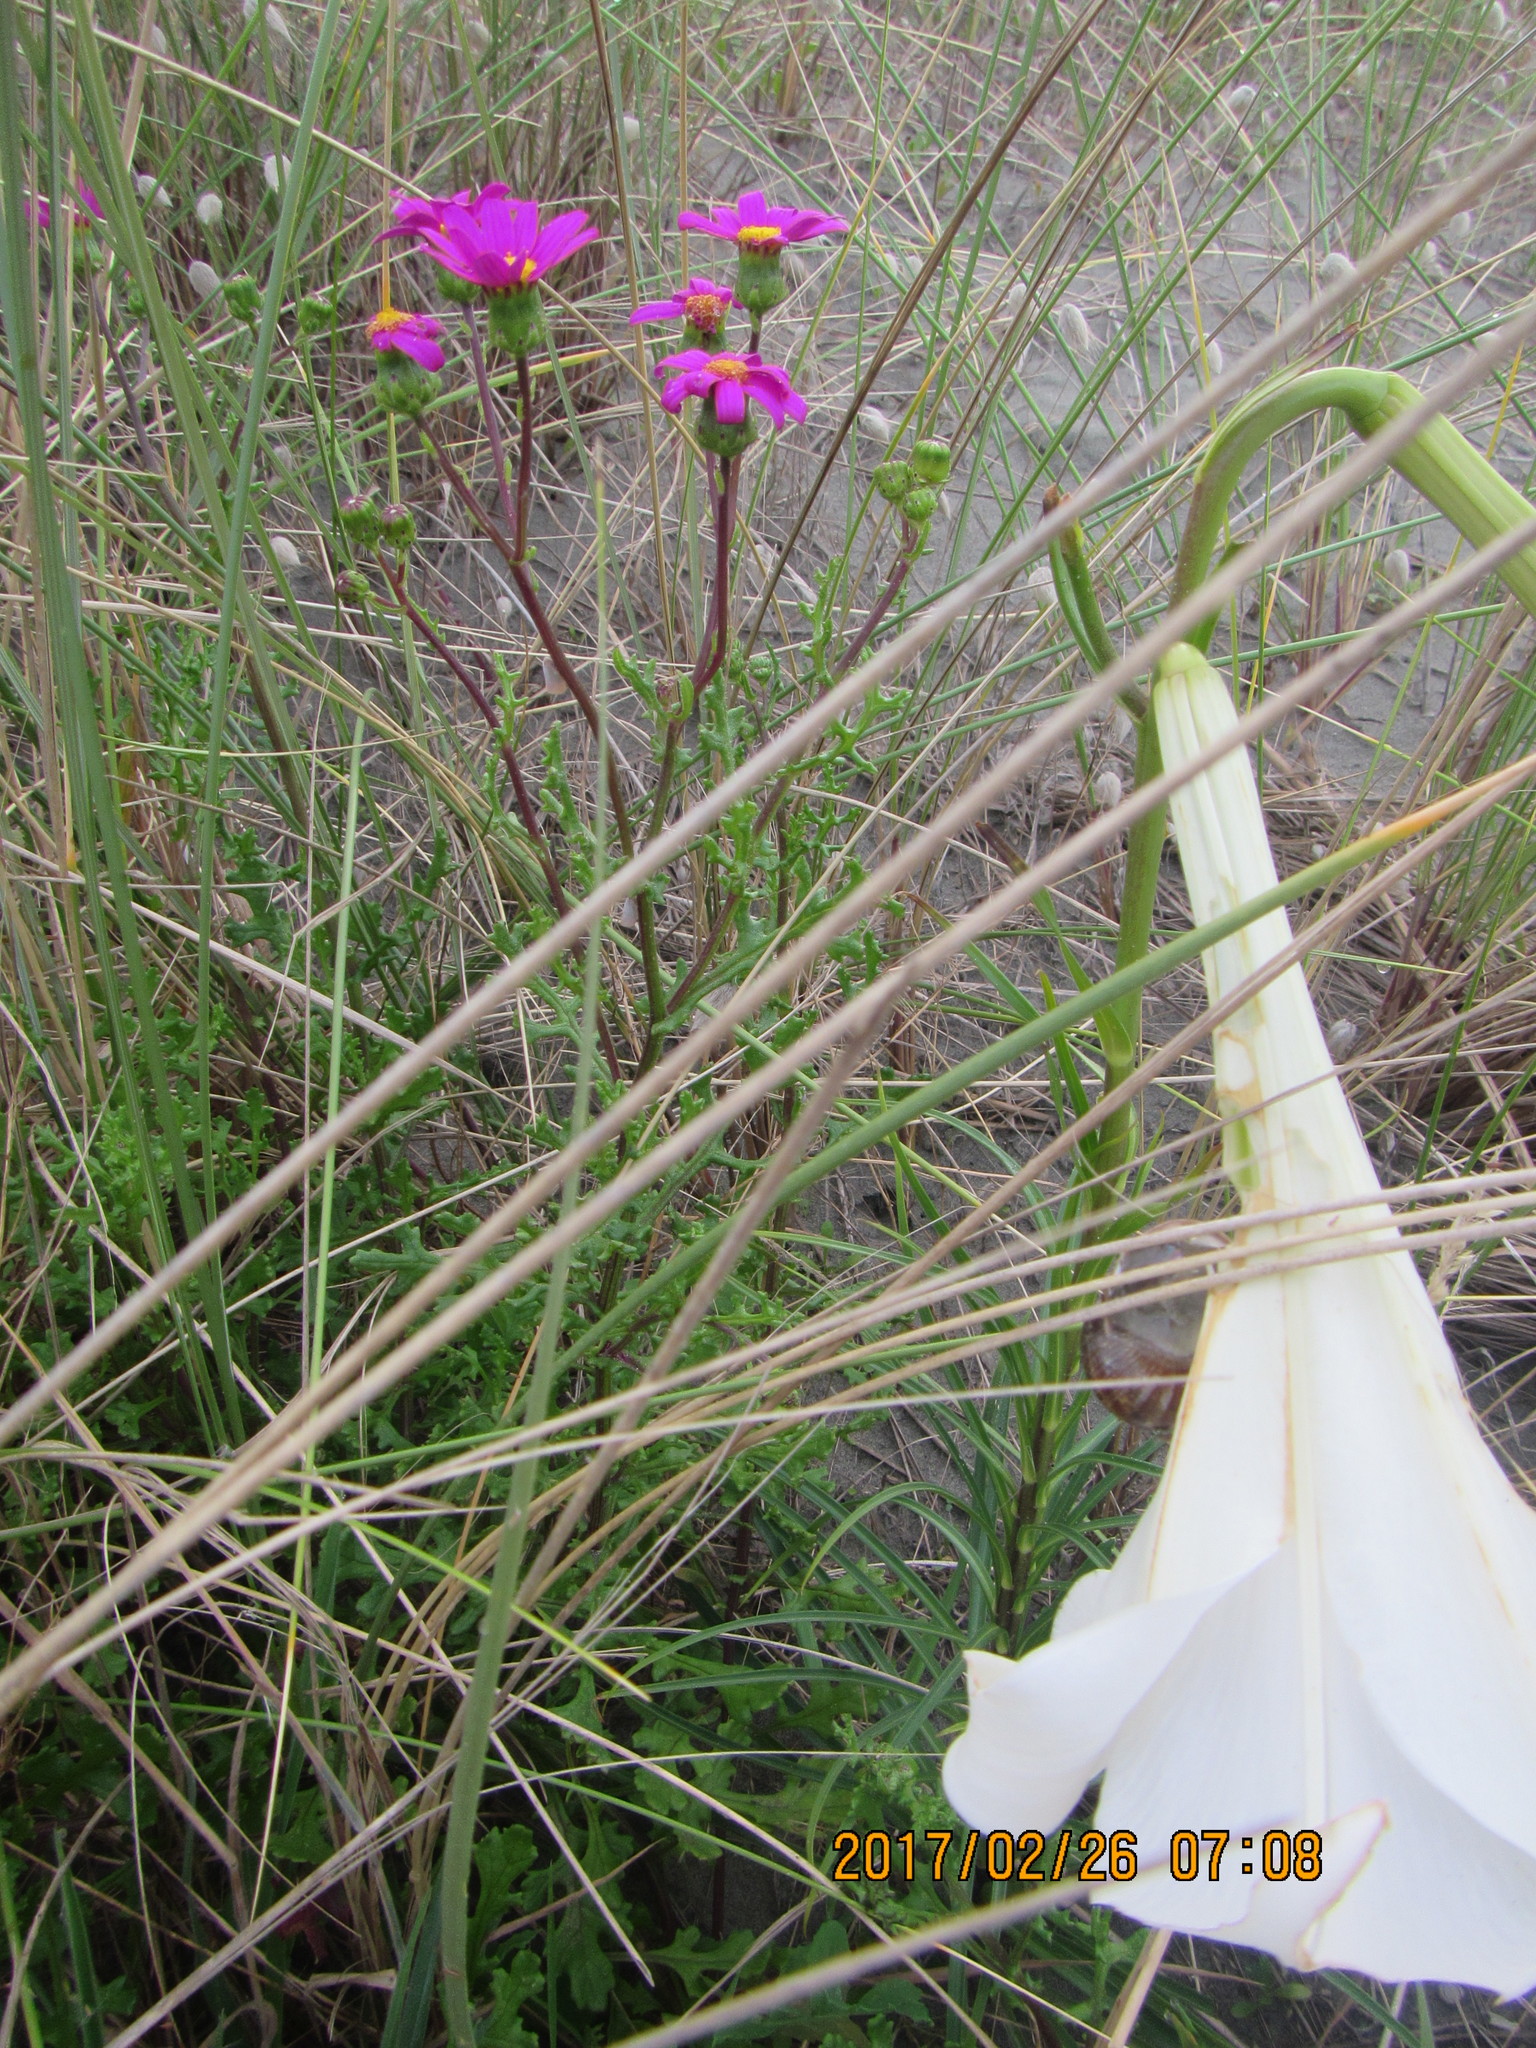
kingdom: Plantae
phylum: Tracheophyta
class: Magnoliopsida
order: Asterales
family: Asteraceae
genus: Senecio
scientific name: Senecio elegans
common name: Purple groundsel
